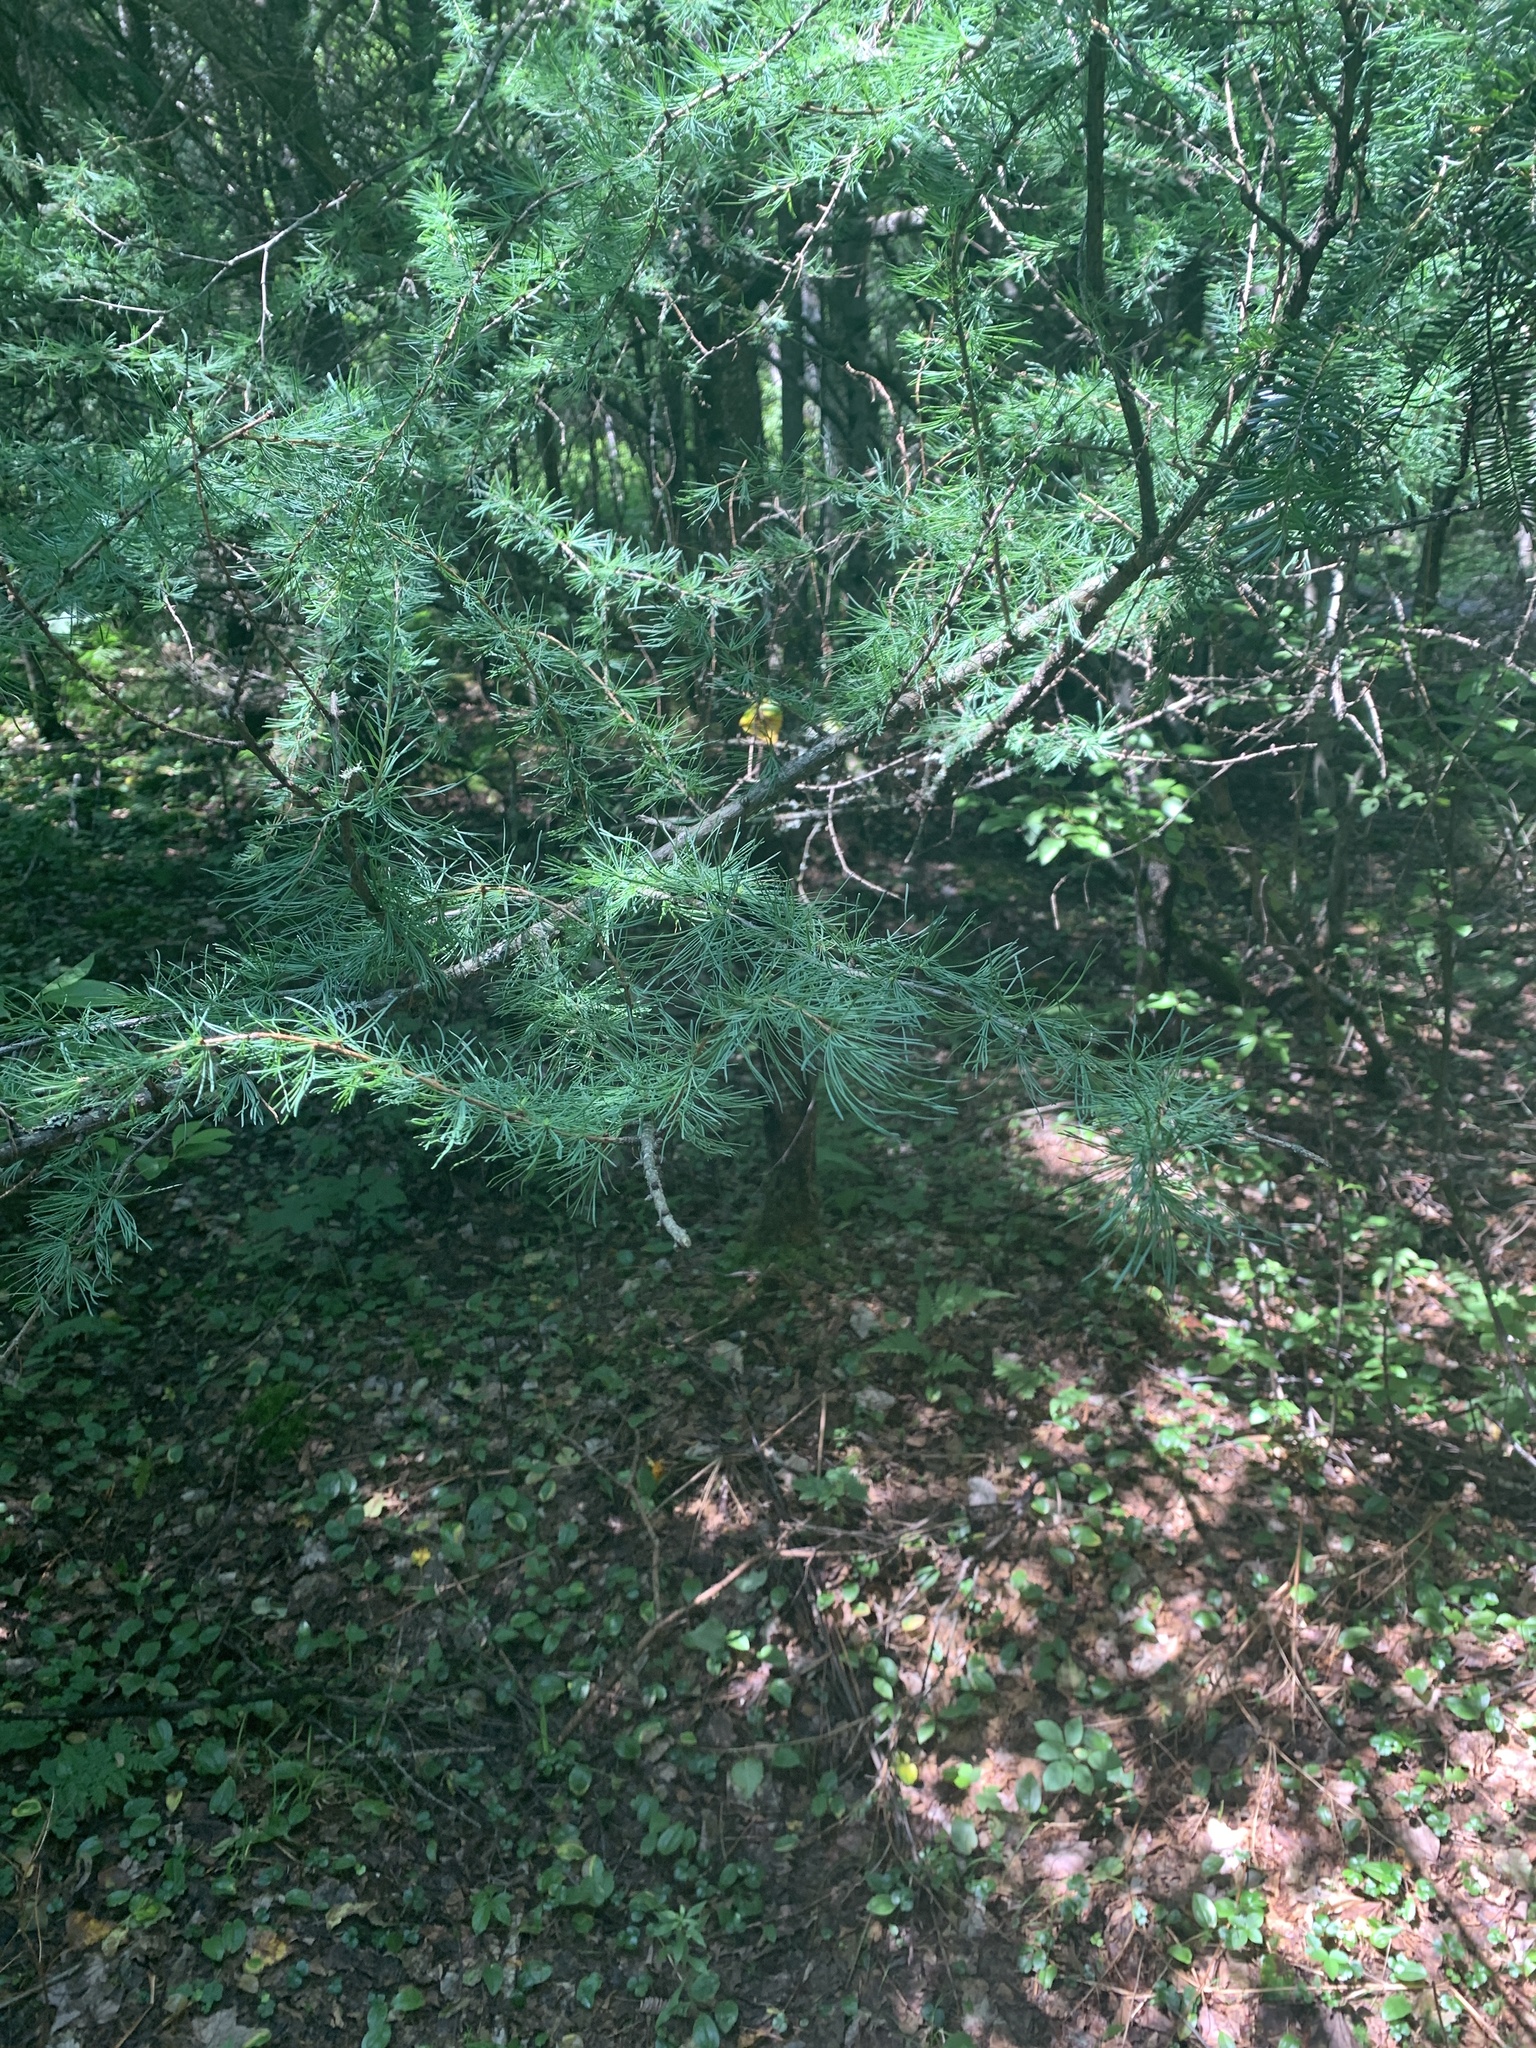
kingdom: Plantae
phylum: Tracheophyta
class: Pinopsida
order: Pinales
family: Pinaceae
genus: Larix
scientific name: Larix laricina
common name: American larch
